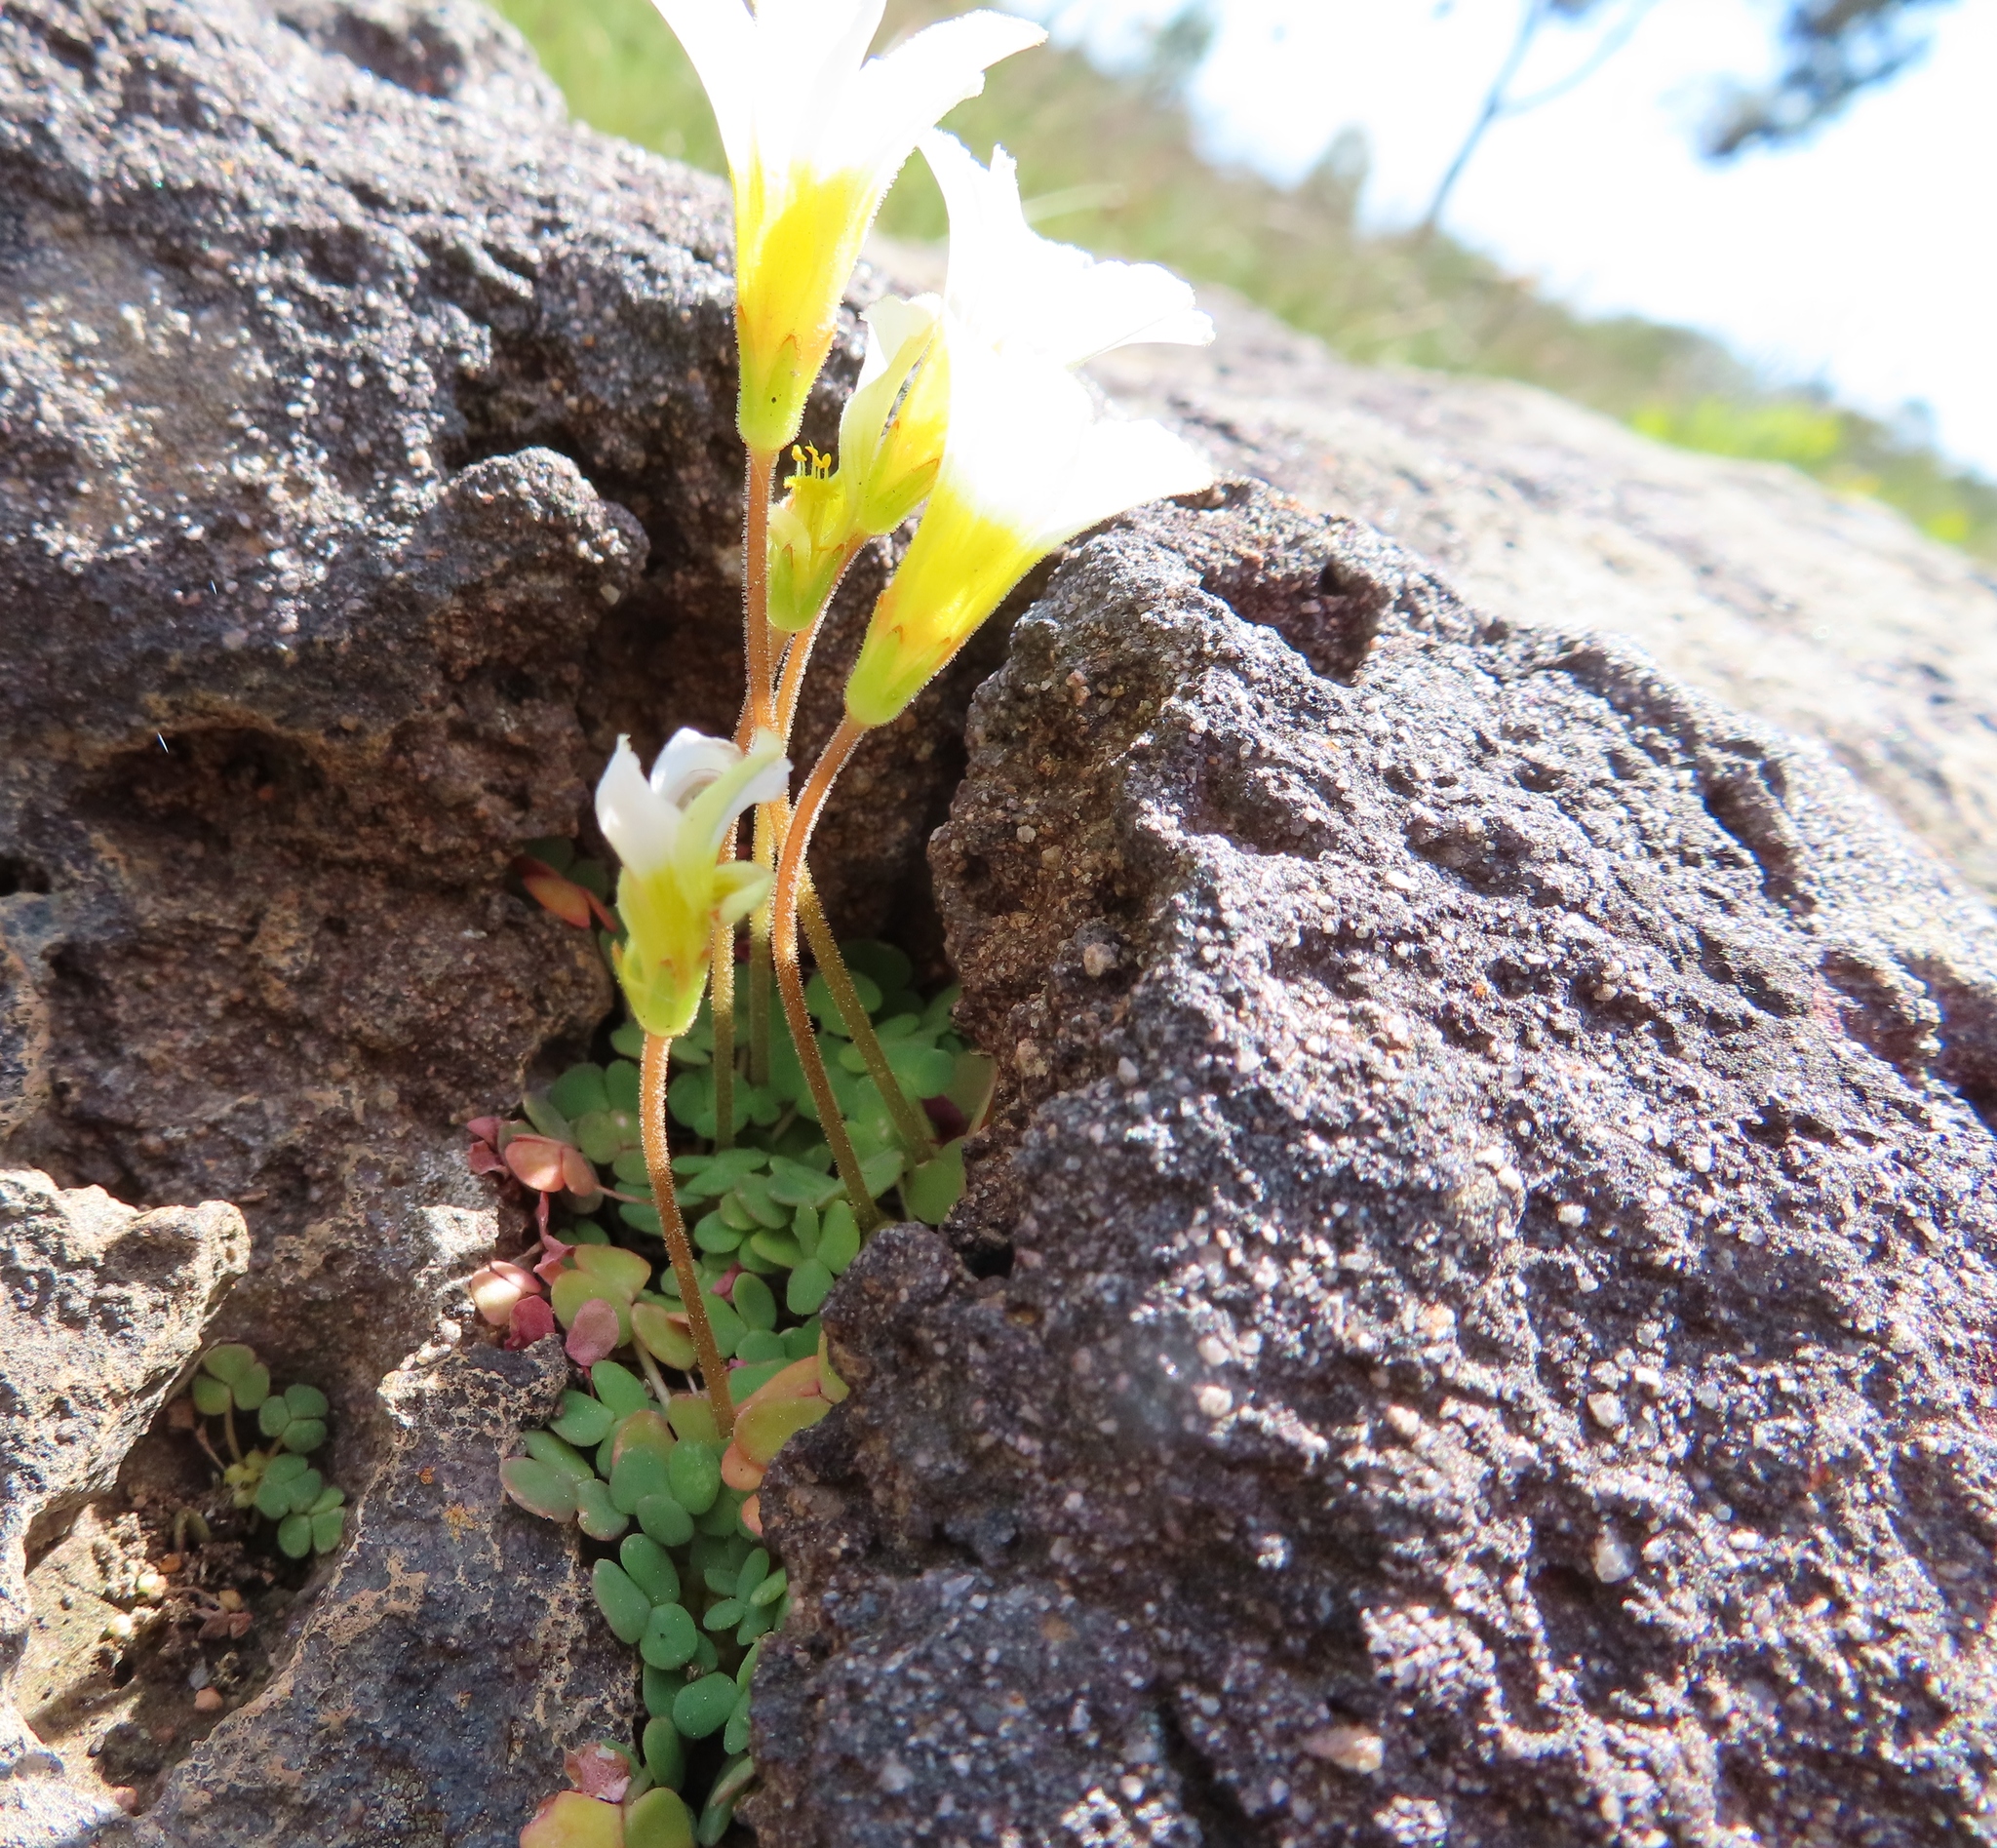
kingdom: Plantae
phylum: Tracheophyta
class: Magnoliopsida
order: Oxalidales
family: Oxalidaceae
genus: Oxalis
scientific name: Oxalis fergusoniae
